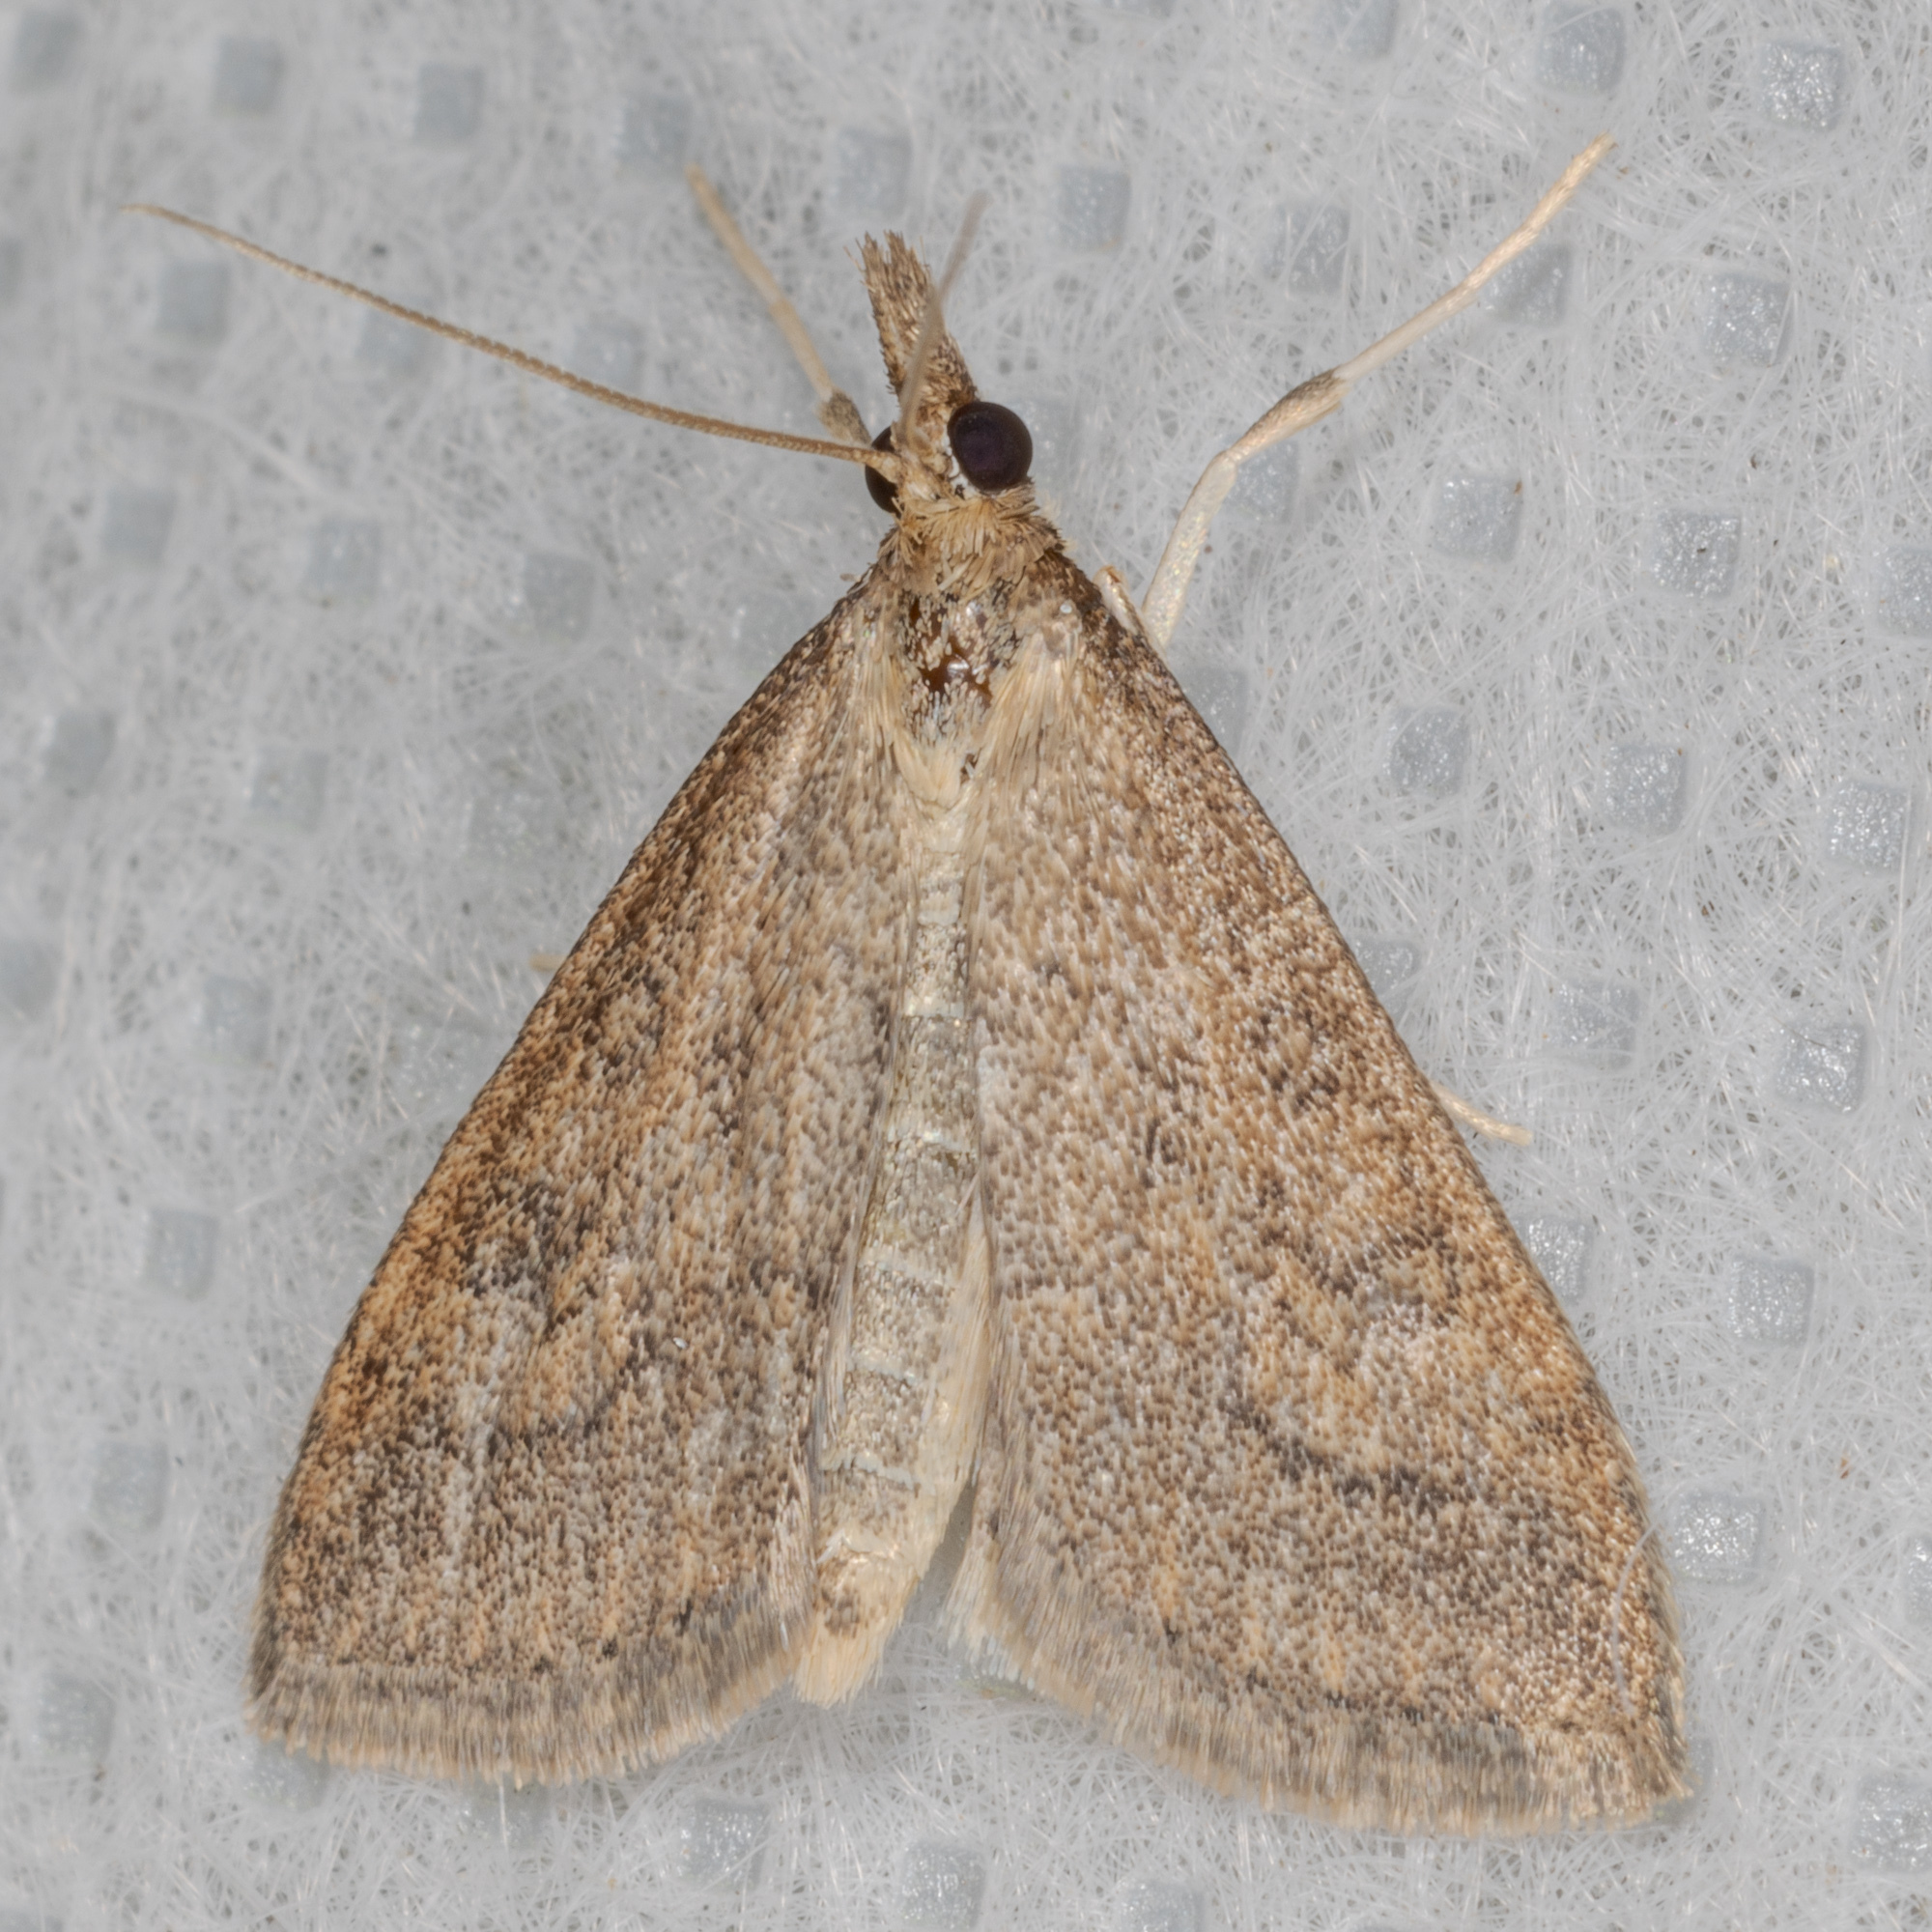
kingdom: Animalia
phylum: Arthropoda
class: Insecta
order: Lepidoptera
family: Crambidae
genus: Udea
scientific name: Udea rubigalis
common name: Celery leaftier moth
